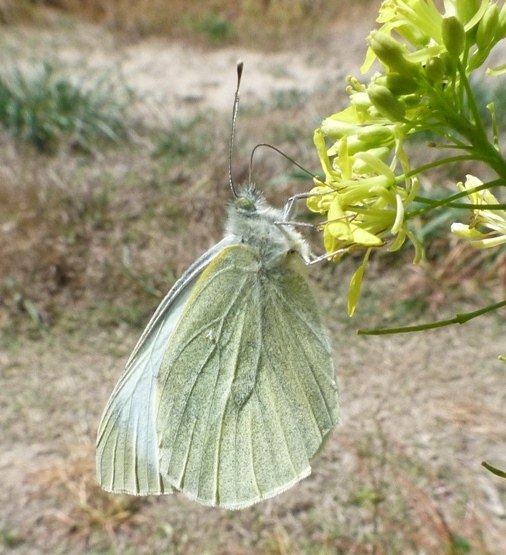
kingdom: Animalia
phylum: Arthropoda
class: Insecta
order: Lepidoptera
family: Pieridae
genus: Pieris
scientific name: Pieris brassicae
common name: Large white
